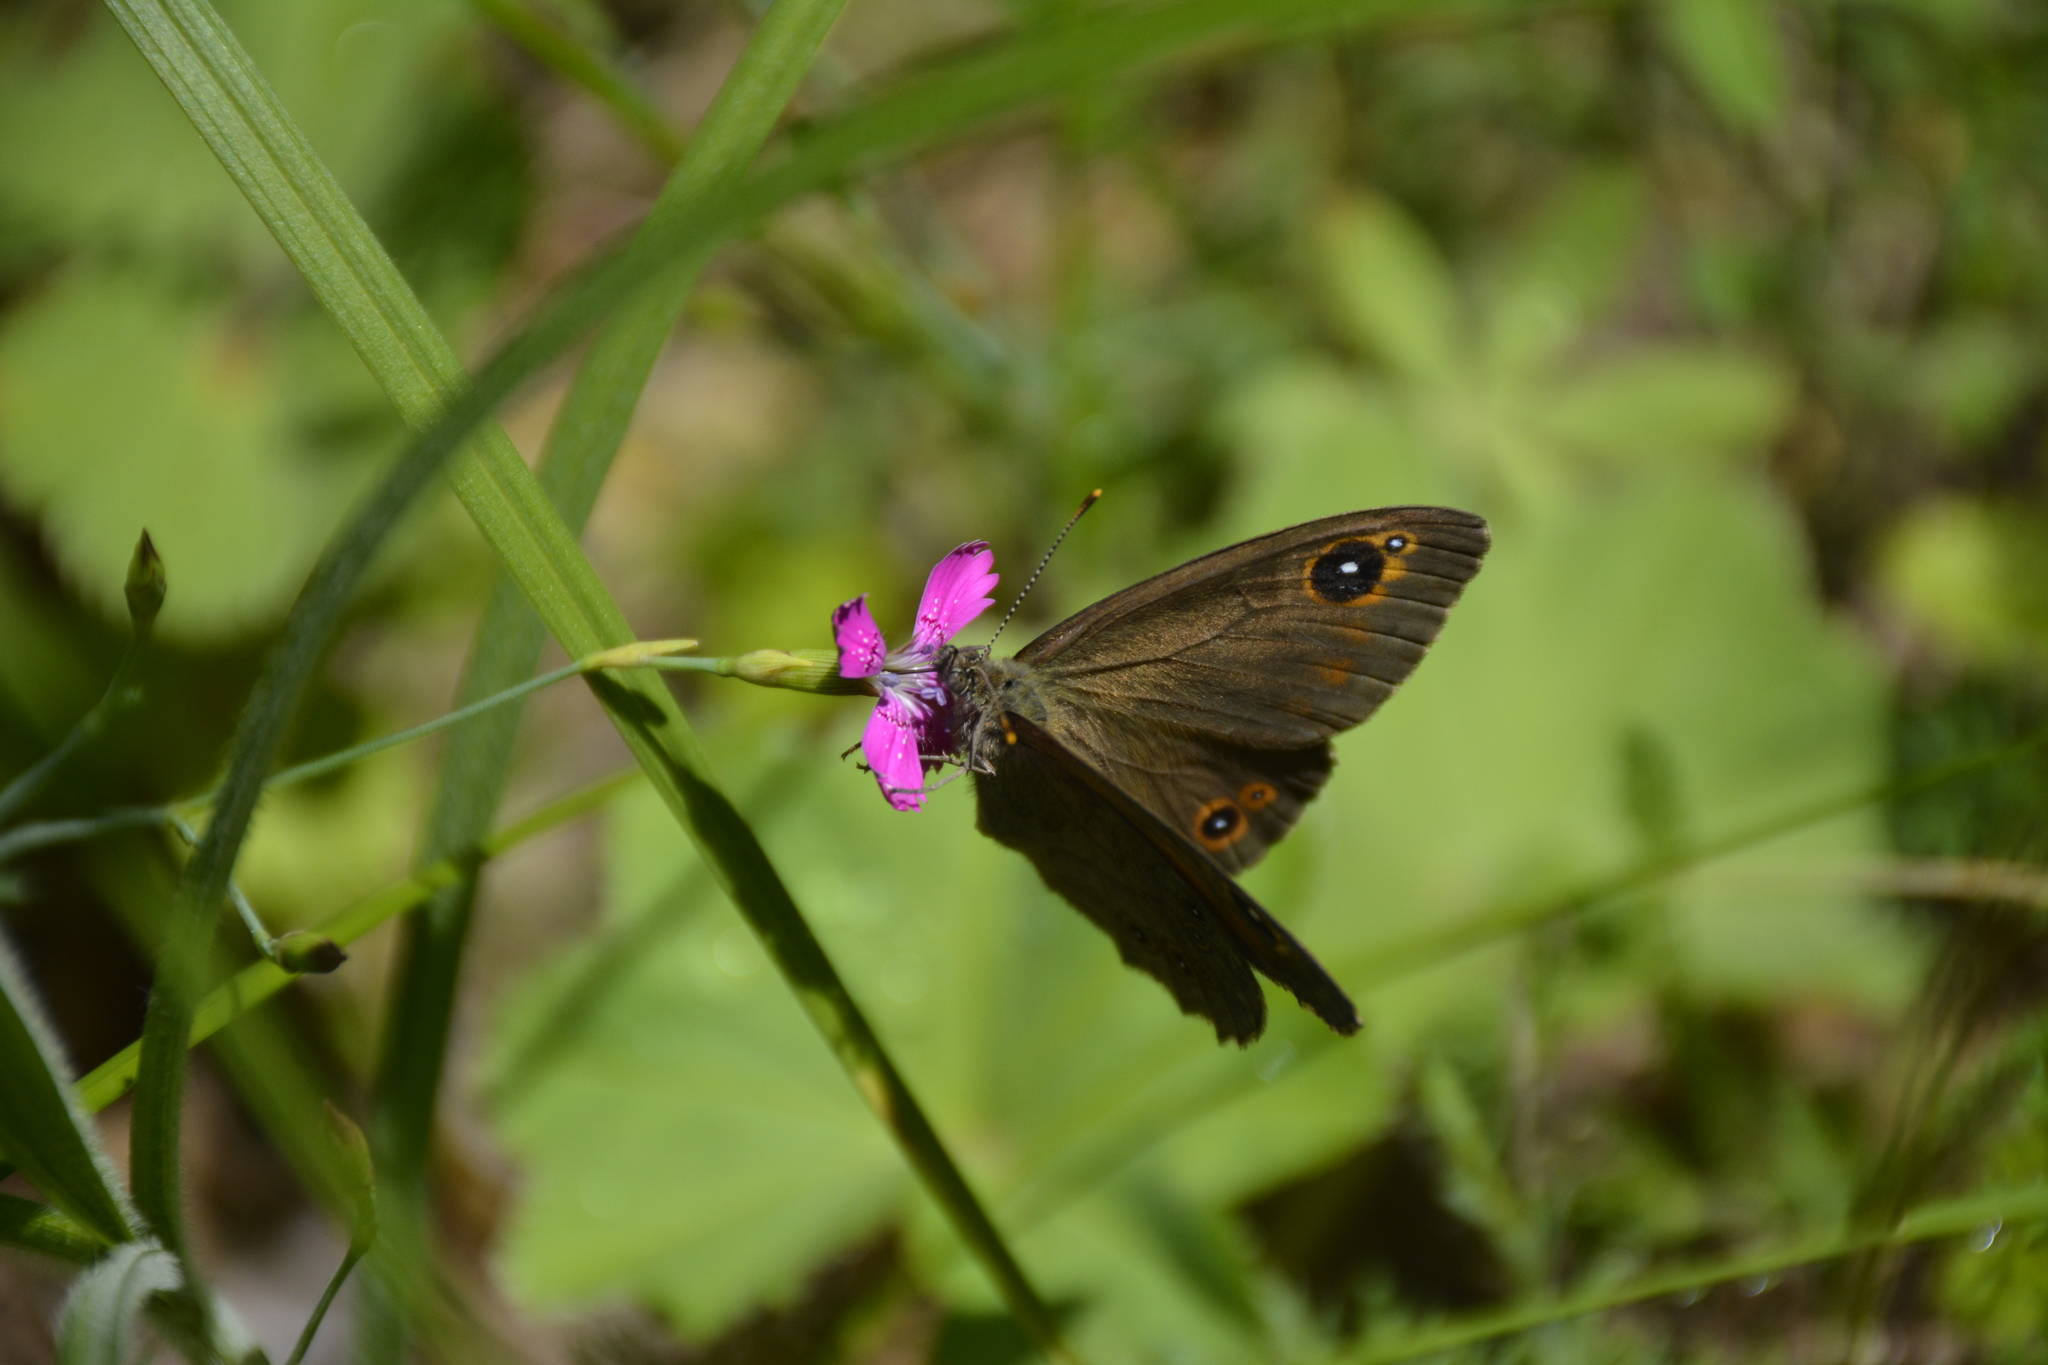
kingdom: Animalia
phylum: Arthropoda
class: Insecta
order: Lepidoptera
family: Nymphalidae
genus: Pararge
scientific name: Pararge Lasiommata maera
